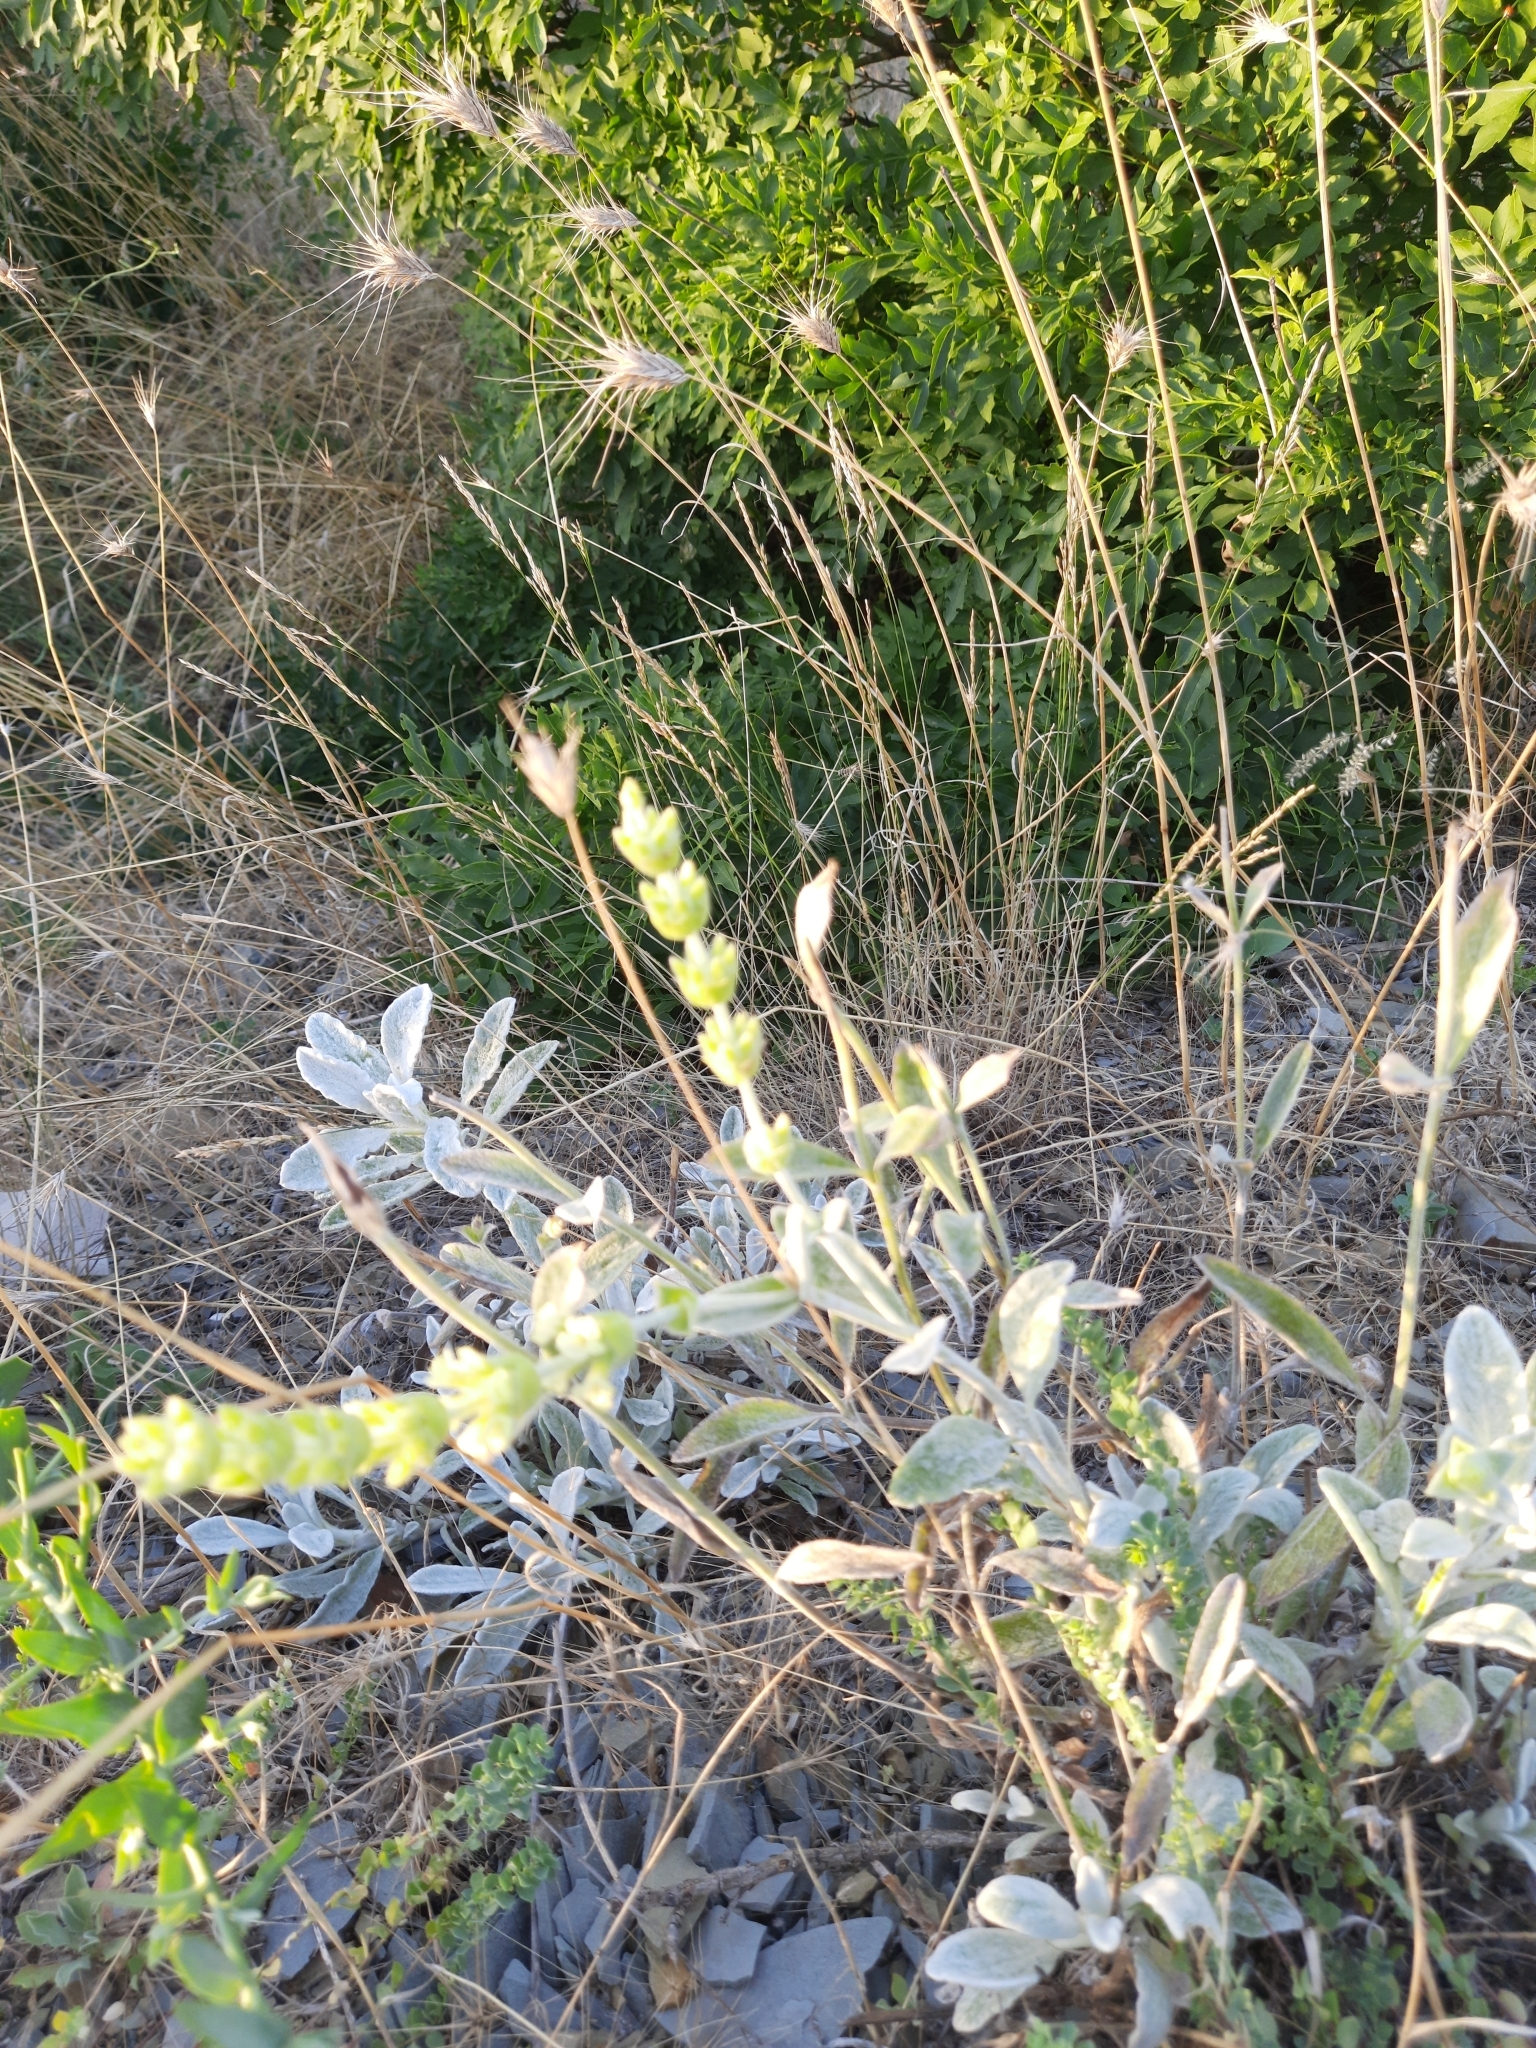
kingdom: Plantae
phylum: Tracheophyta
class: Magnoliopsida
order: Lamiales
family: Lamiaceae
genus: Sideritis
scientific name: Sideritis euxina
